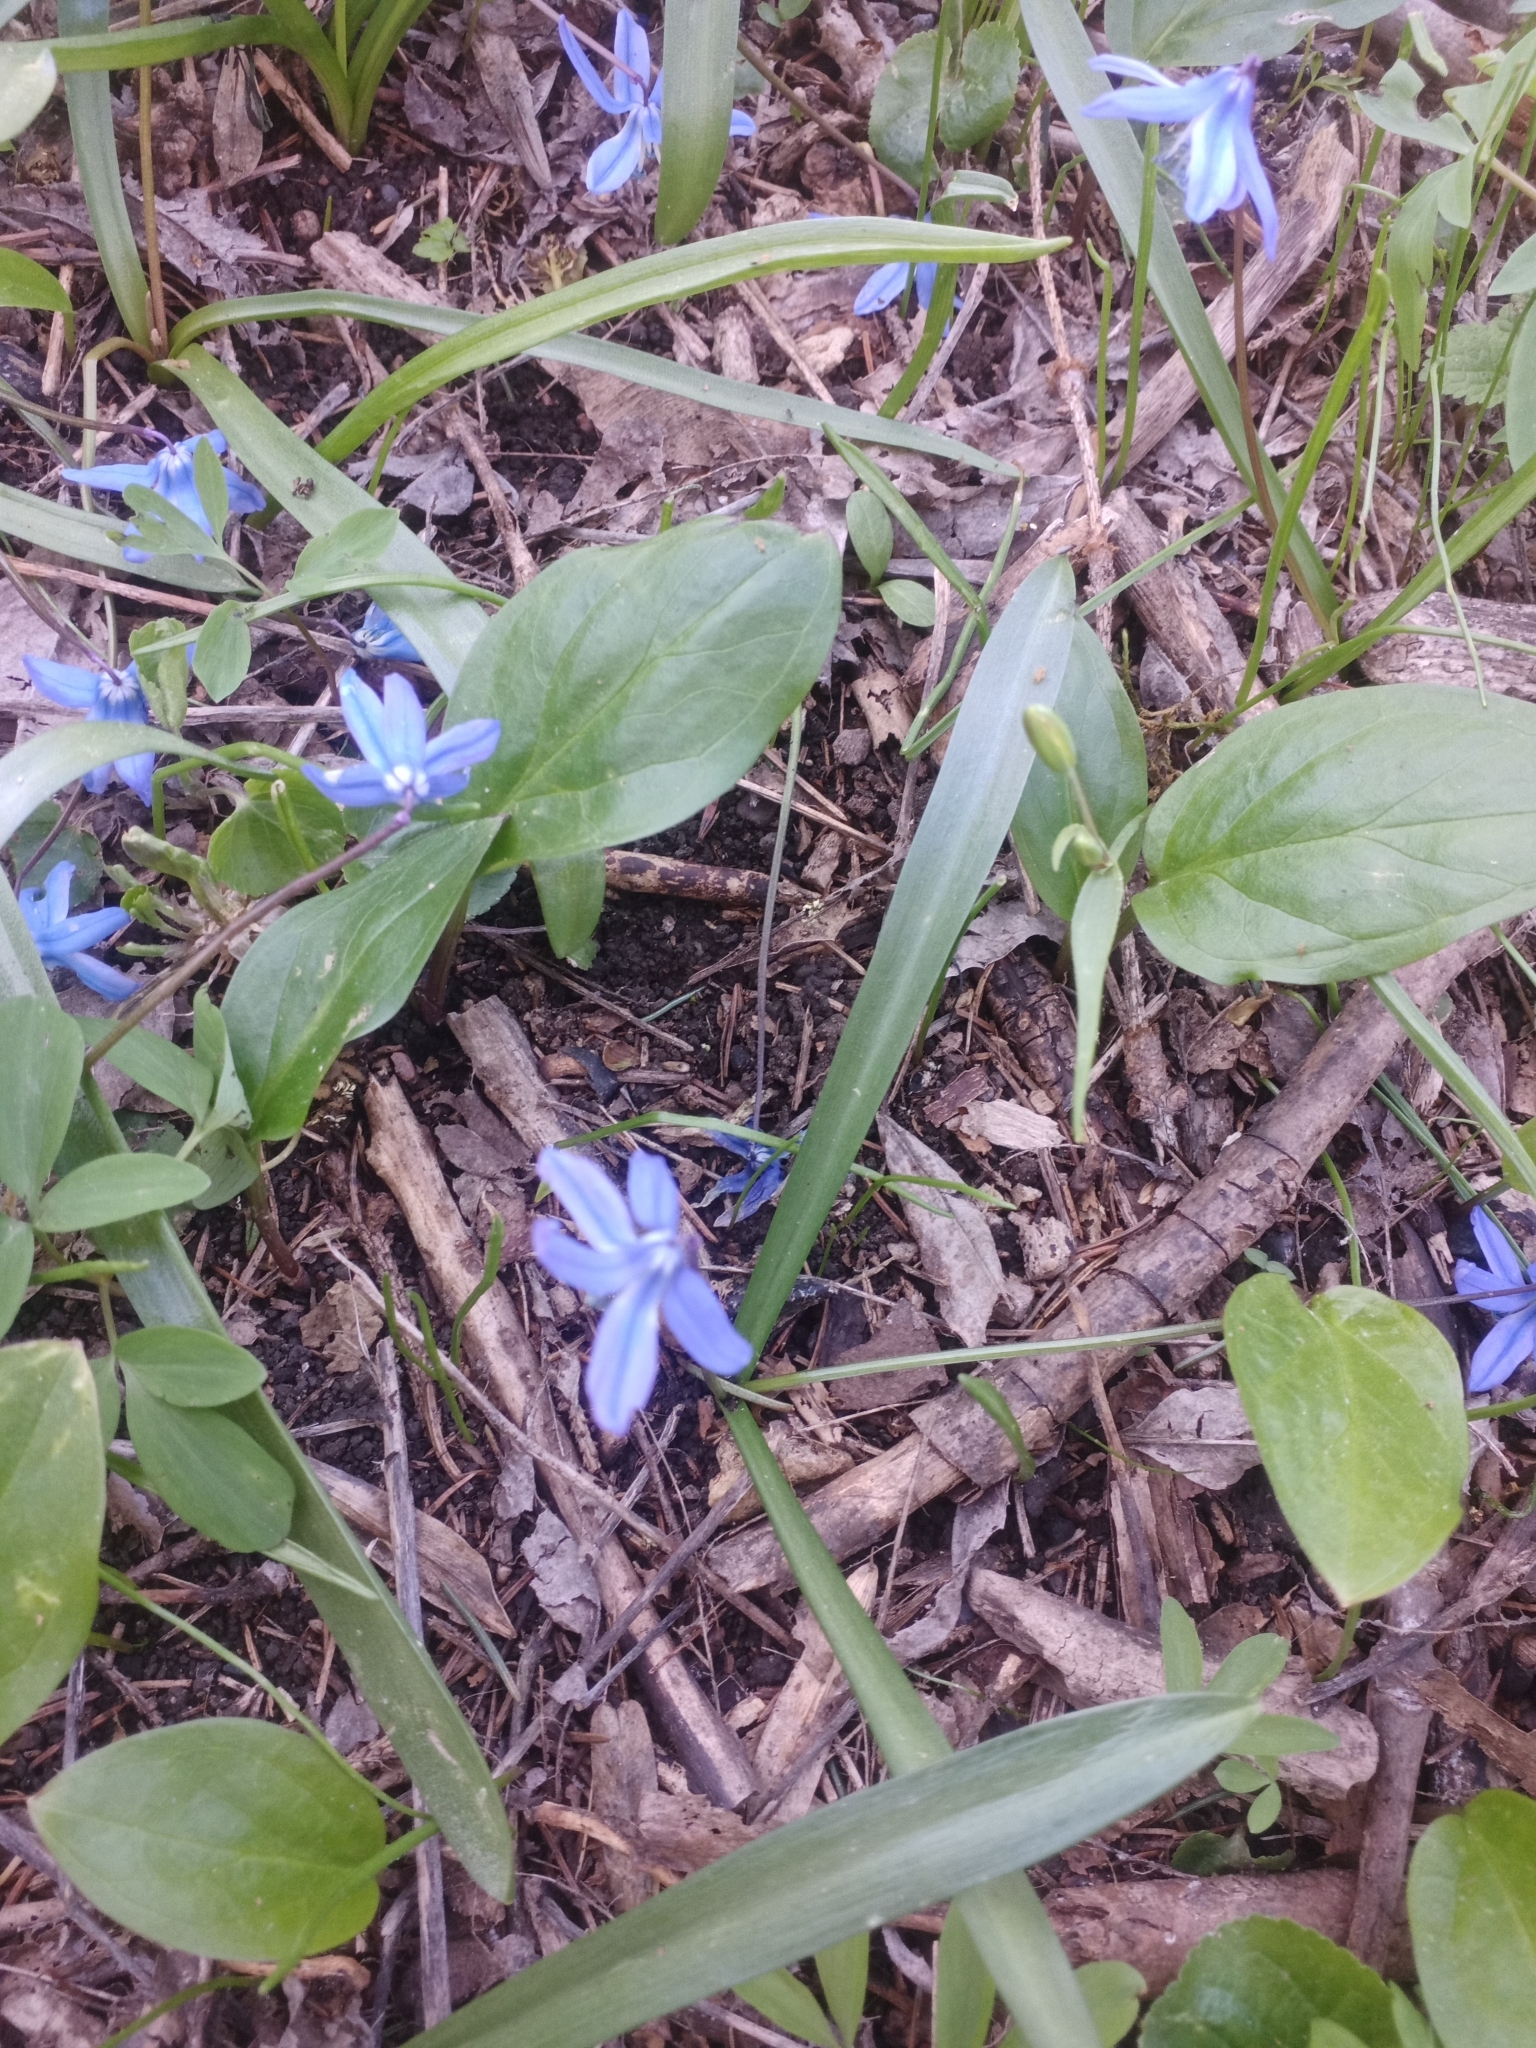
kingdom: Plantae
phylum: Tracheophyta
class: Liliopsida
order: Asparagales
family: Asparagaceae
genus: Scilla
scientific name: Scilla siberica
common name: Siberian squill
